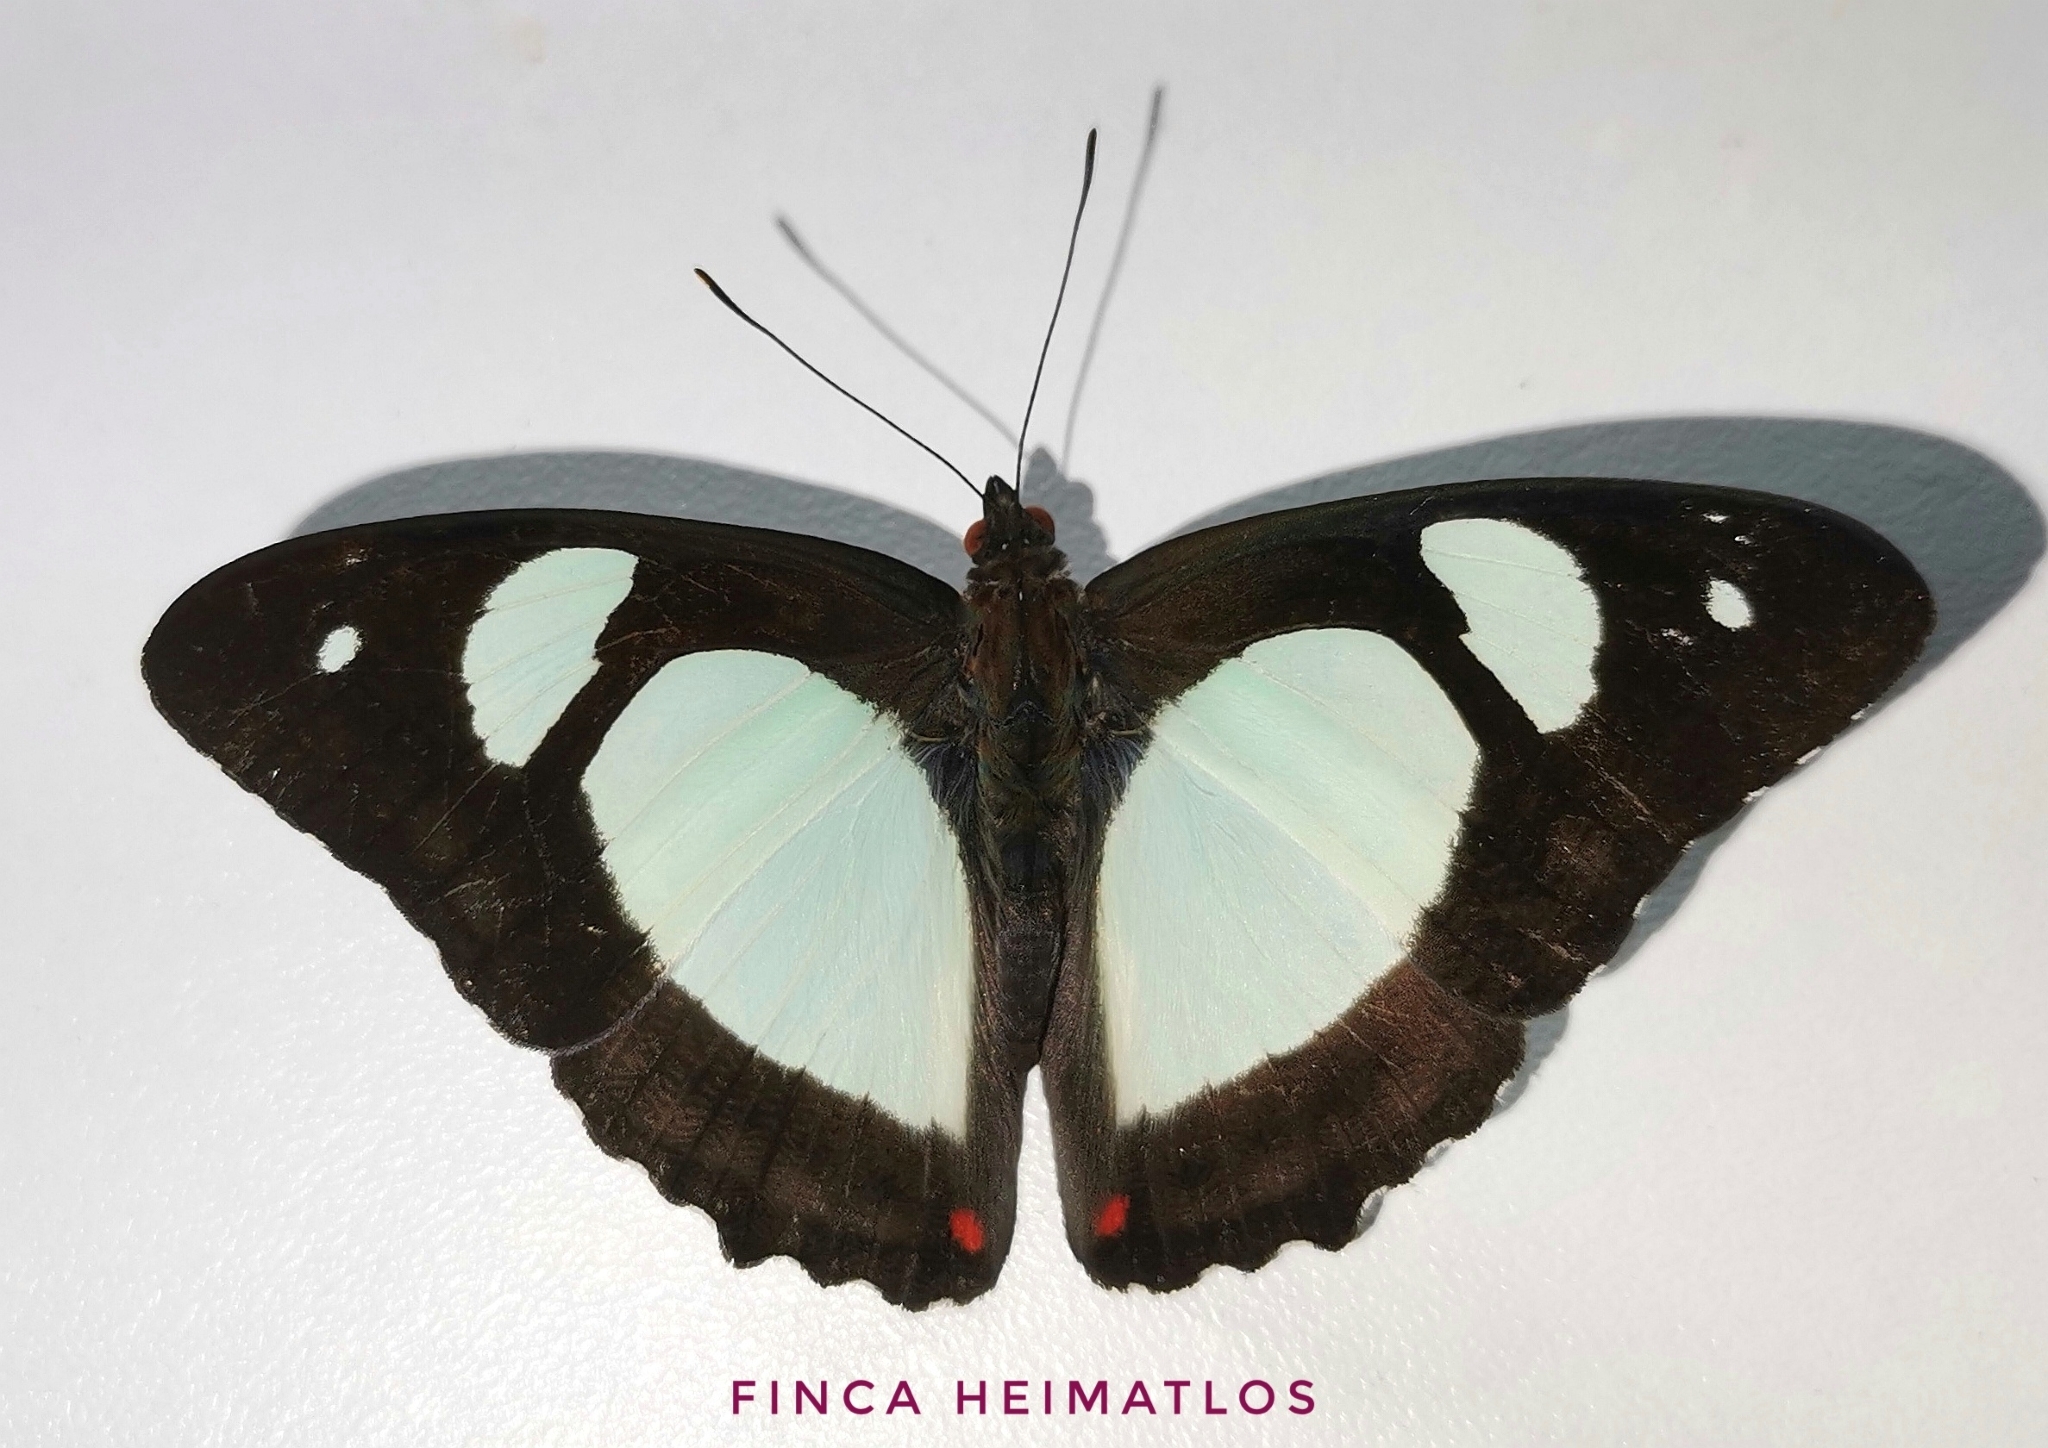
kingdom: Animalia
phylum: Arthropoda
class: Insecta
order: Lepidoptera
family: Nymphalidae
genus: Pyrrhogyra
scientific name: Pyrrhogyra edocla
